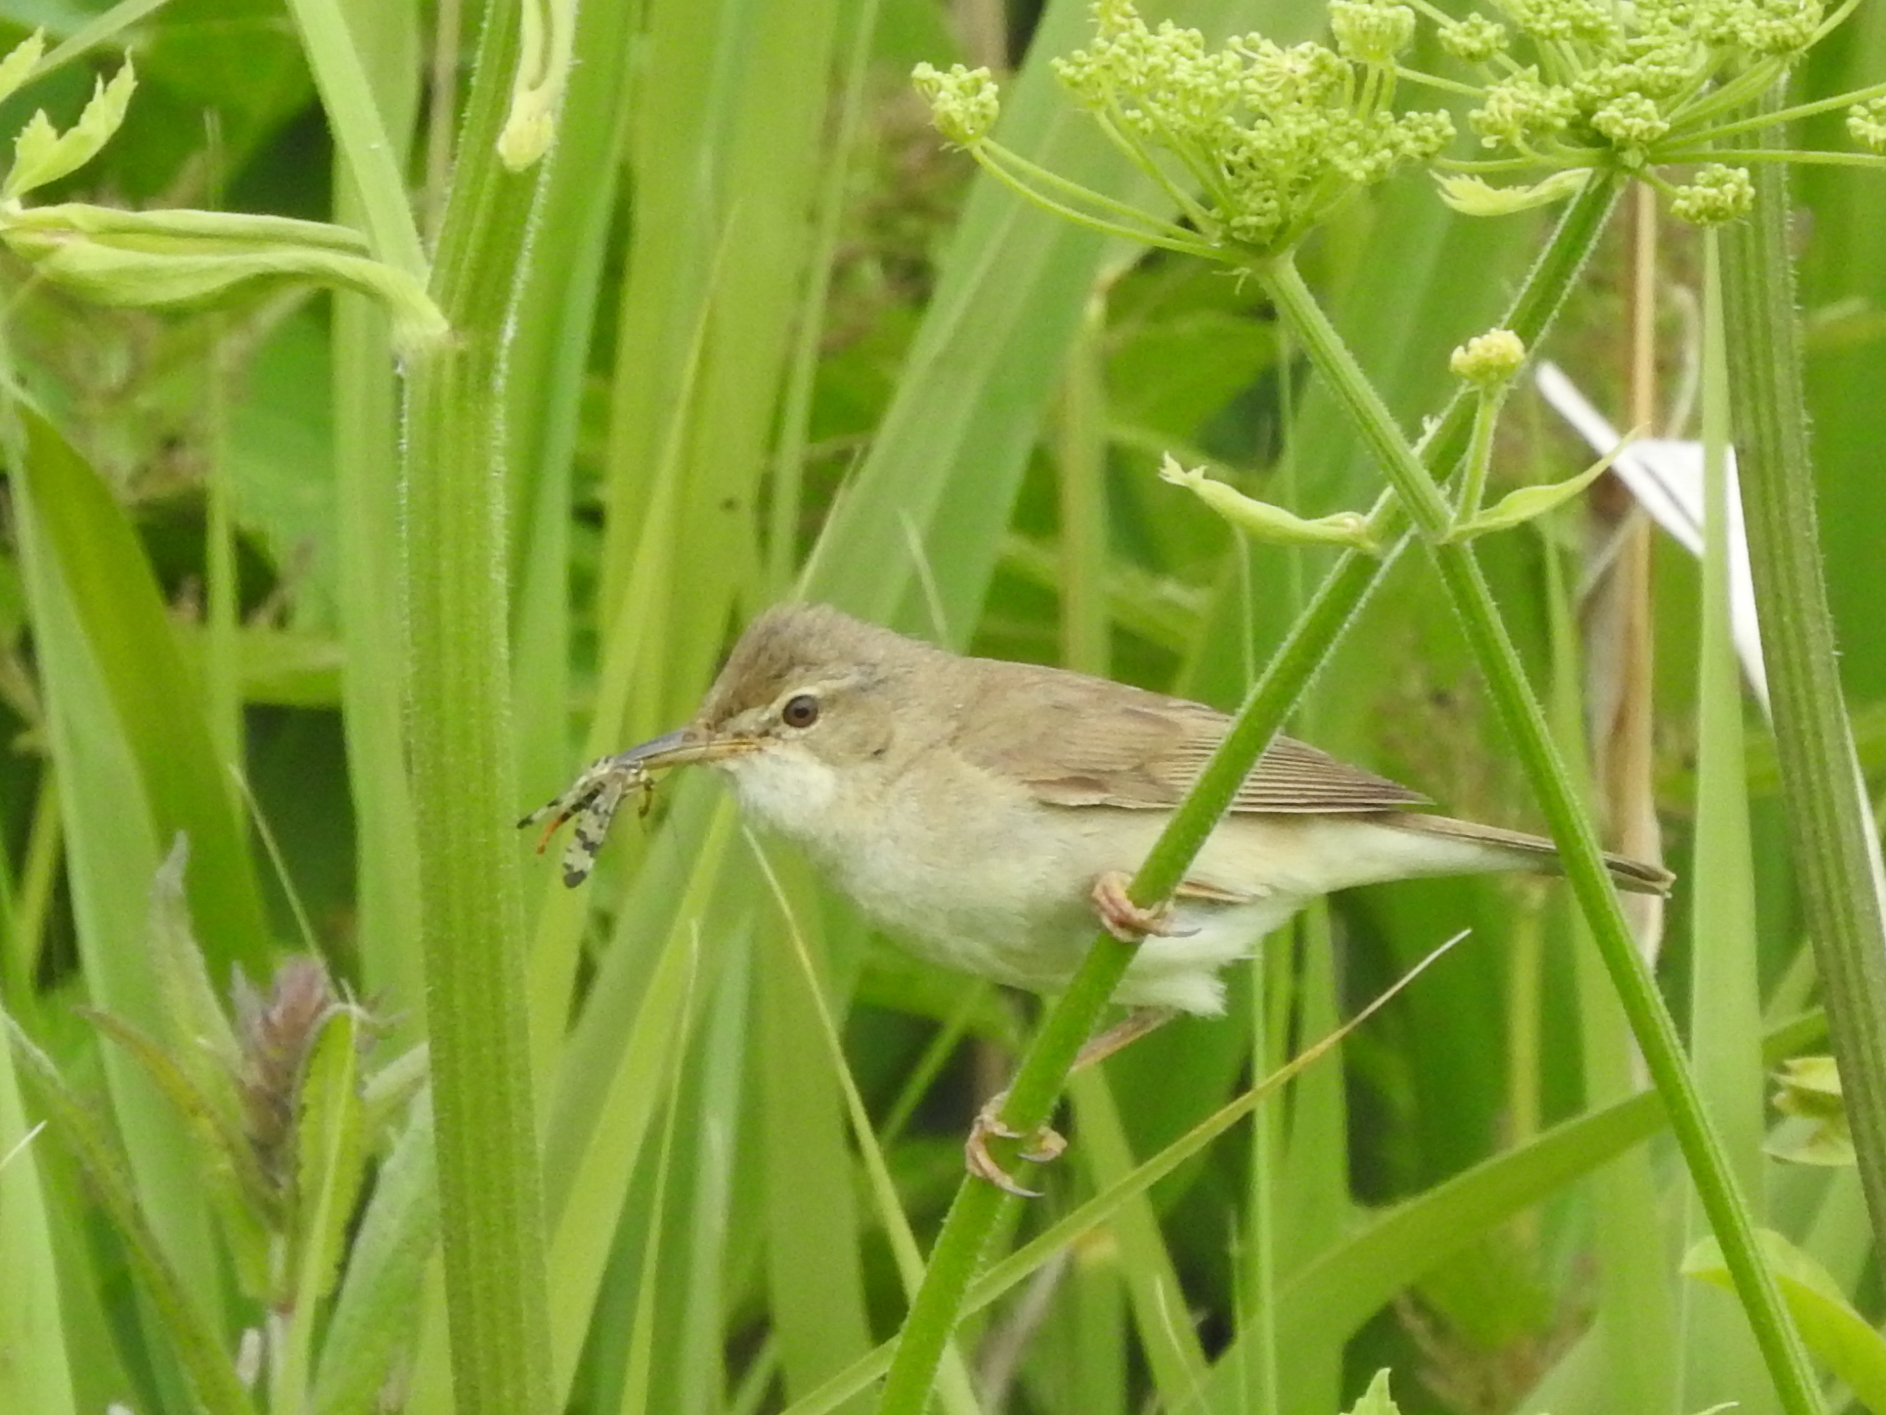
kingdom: Animalia
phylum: Chordata
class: Aves
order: Passeriformes
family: Acrocephalidae
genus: Acrocephalus
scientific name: Acrocephalus dumetorum
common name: Blyth's reed warbler
